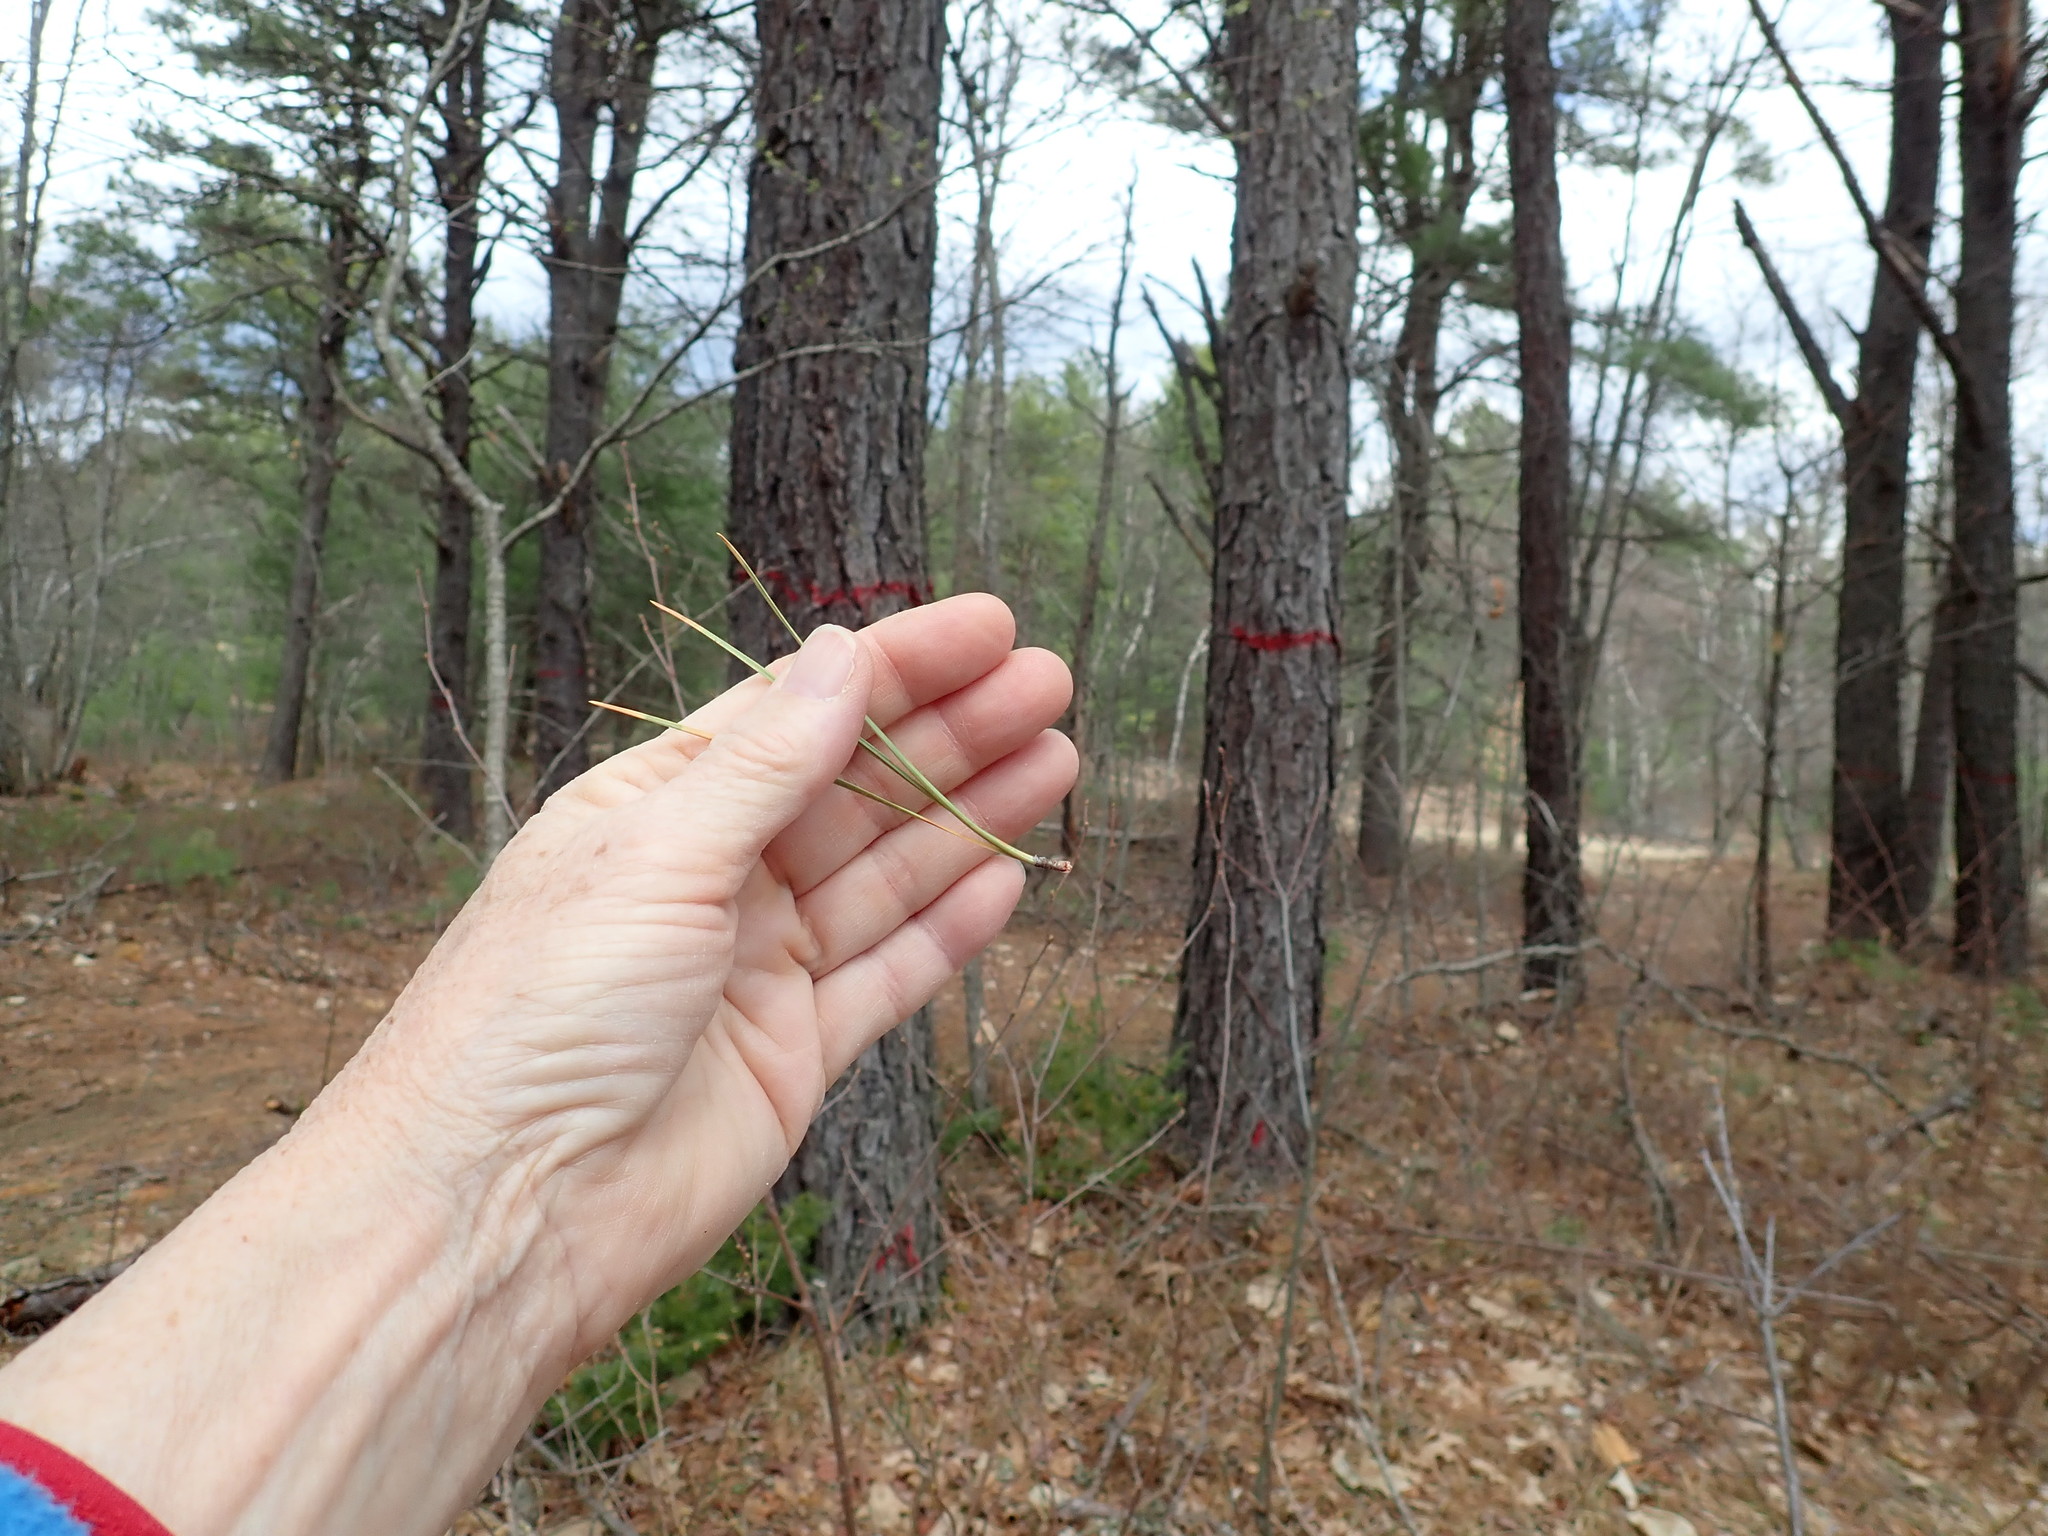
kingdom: Plantae
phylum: Tracheophyta
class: Pinopsida
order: Pinales
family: Pinaceae
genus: Pinus
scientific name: Pinus rigida
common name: Pitch pine
